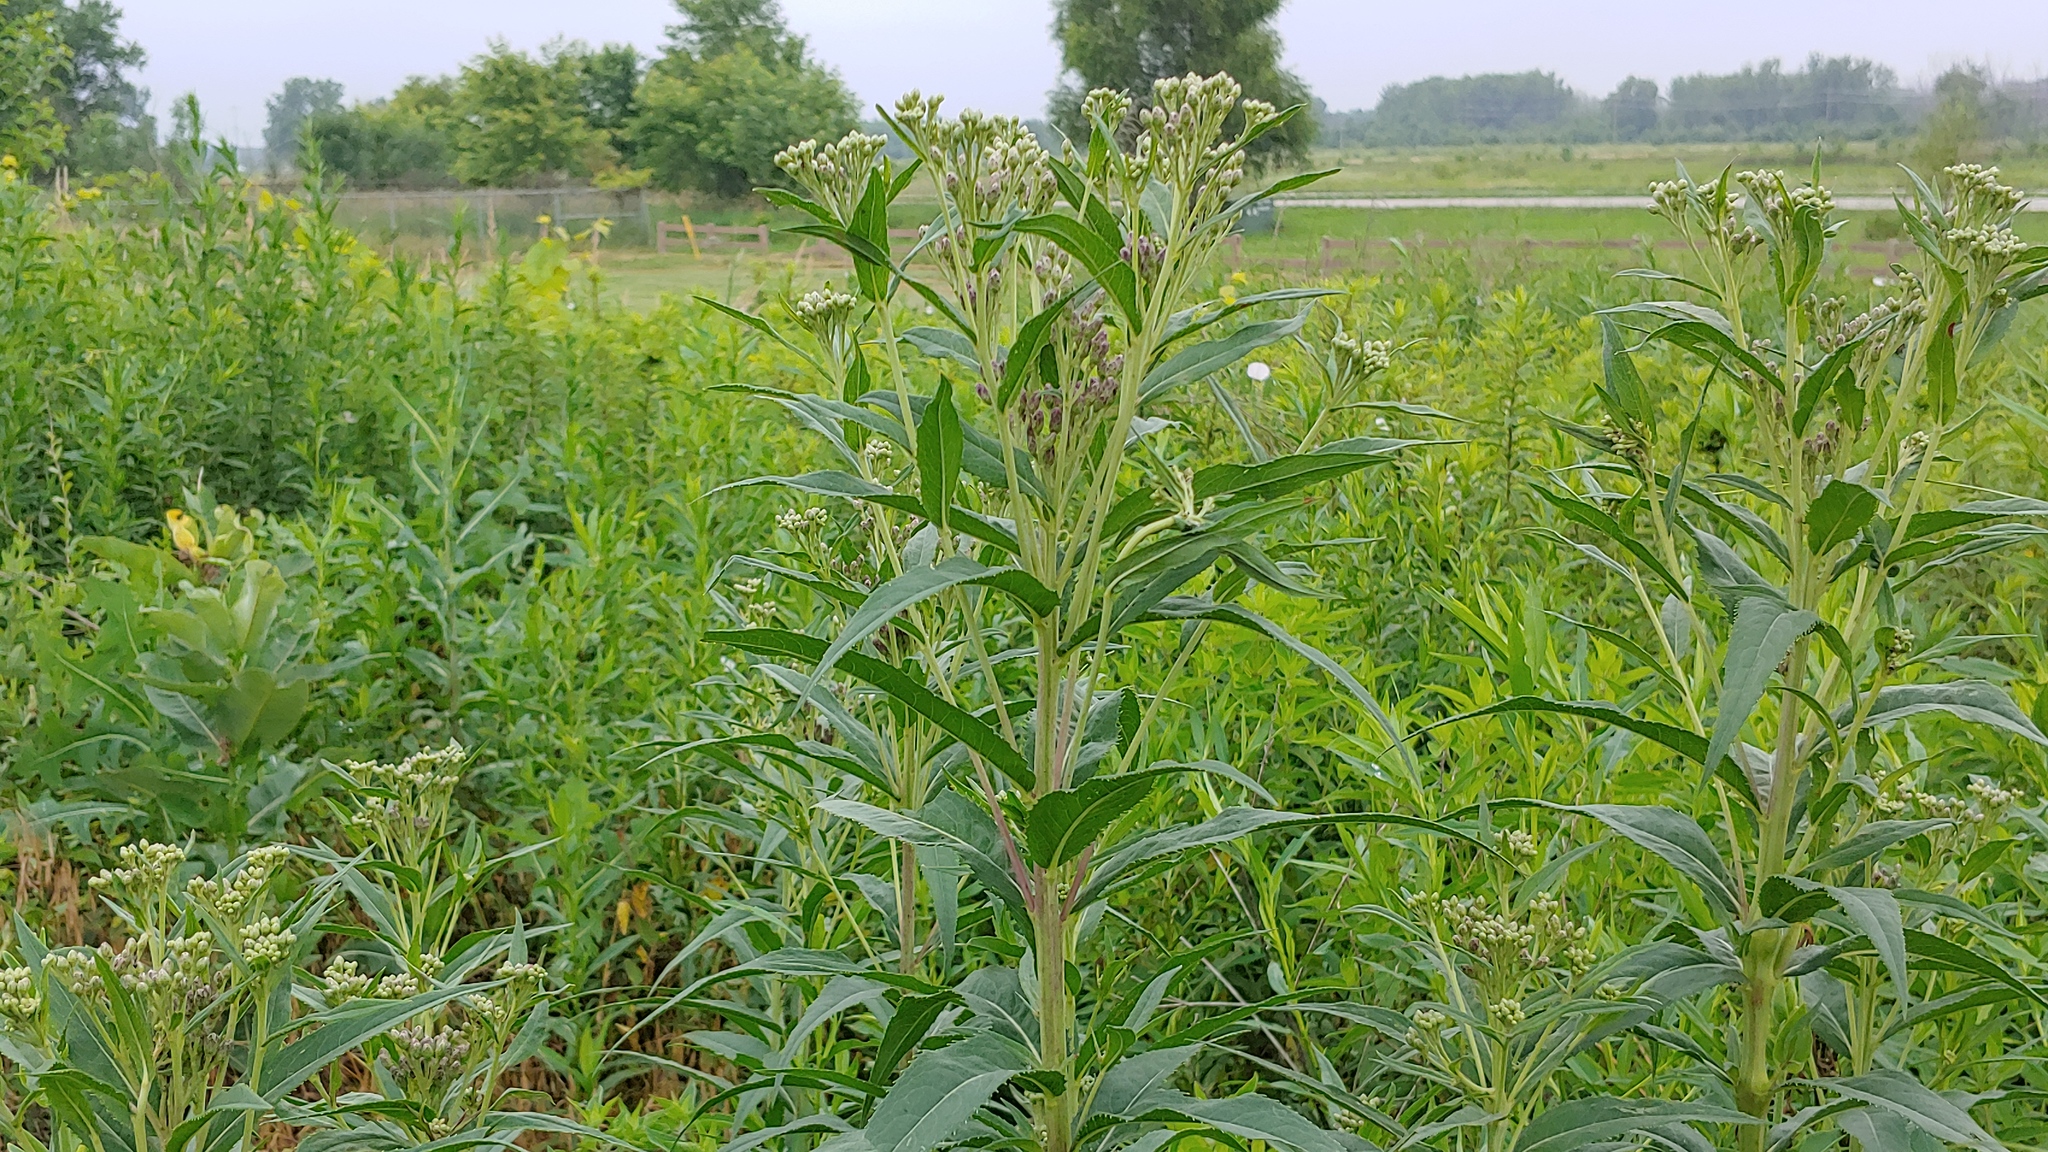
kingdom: Plantae
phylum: Tracheophyta
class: Magnoliopsida
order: Asterales
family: Asteraceae
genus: Vernonia
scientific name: Vernonia fasciculata
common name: Fascicled ironweed
